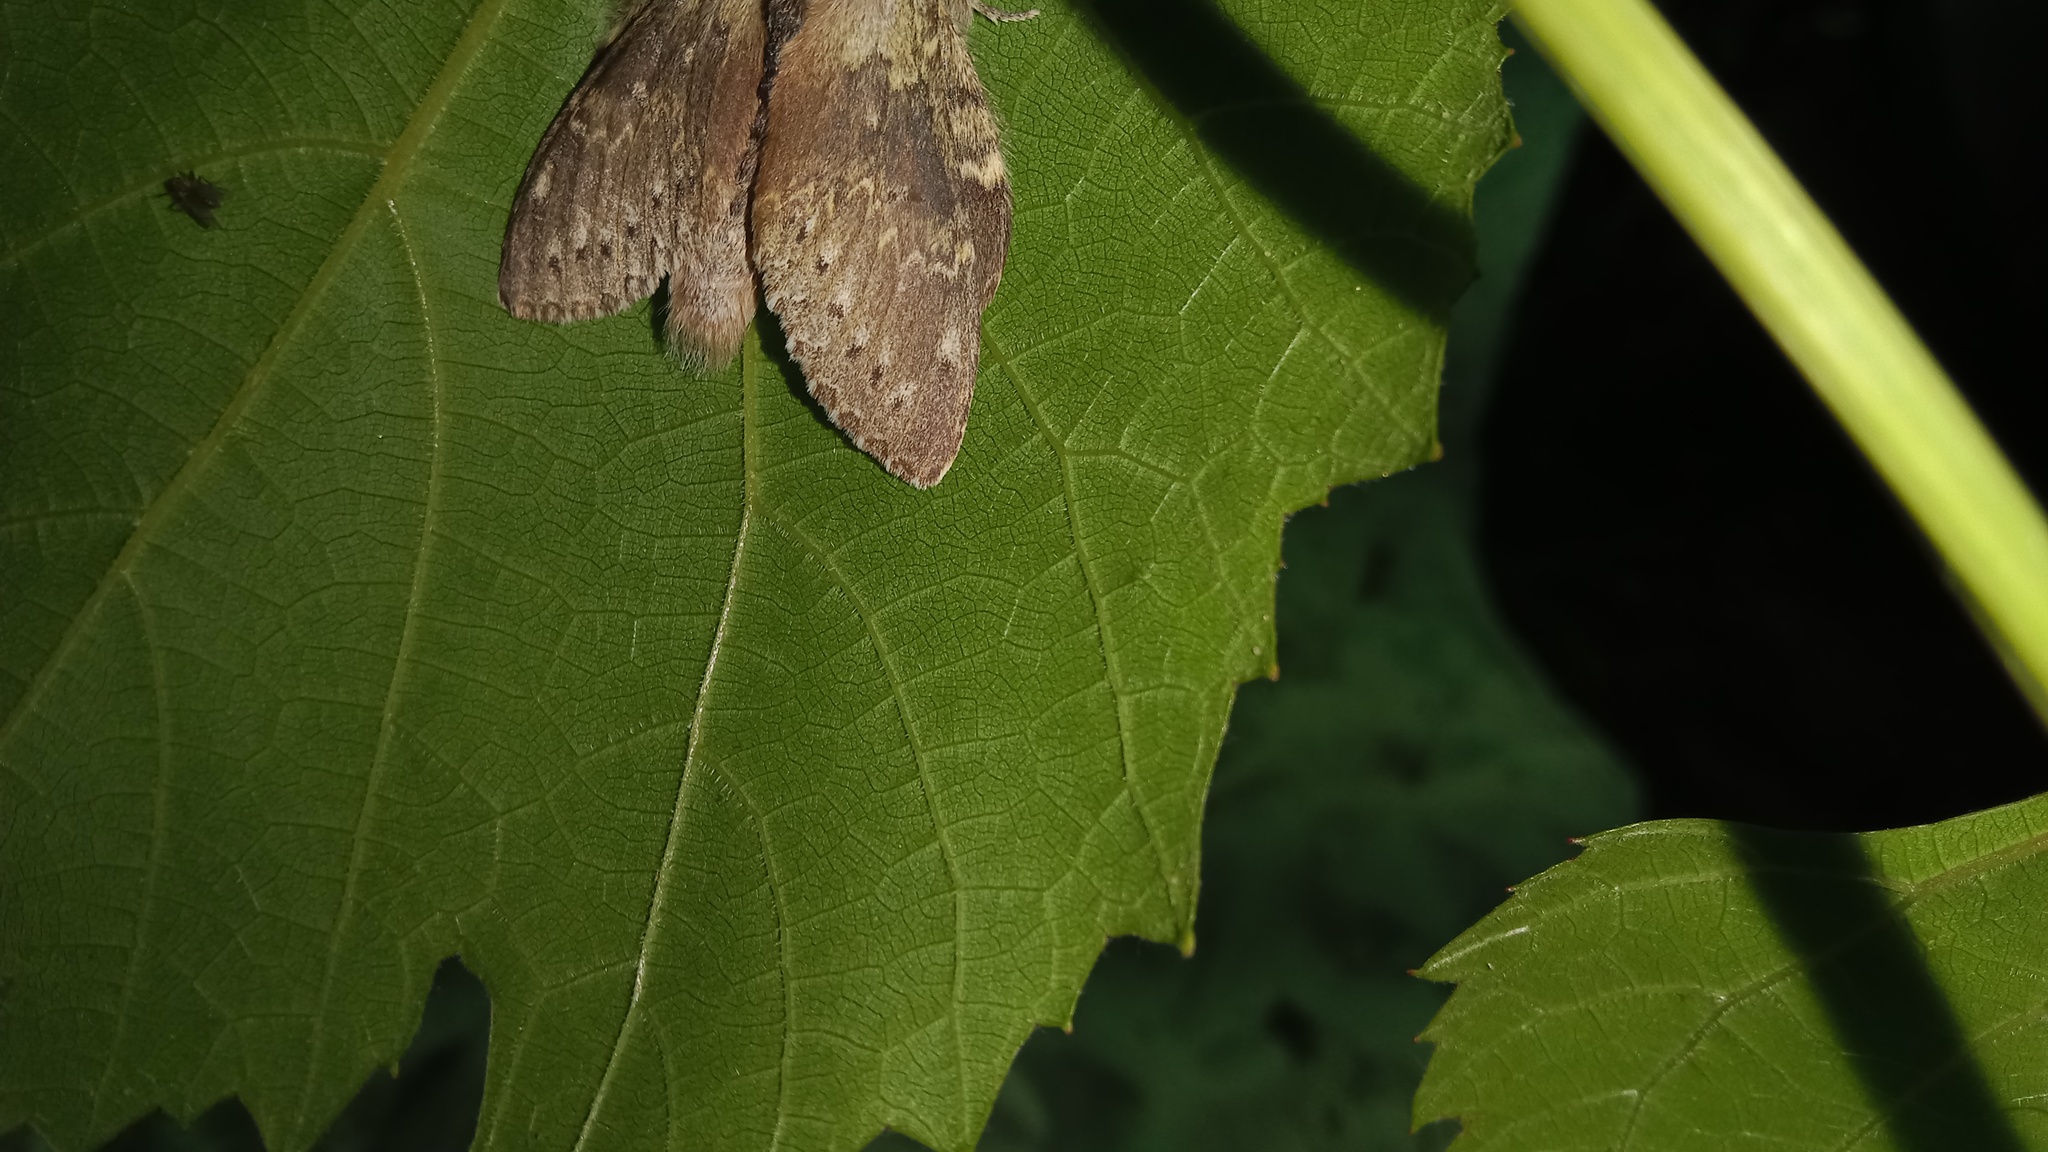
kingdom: Animalia
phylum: Arthropoda
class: Insecta
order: Lepidoptera
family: Notodontidae
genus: Stauropus
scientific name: Stauropus fagi
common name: Lobster moth
